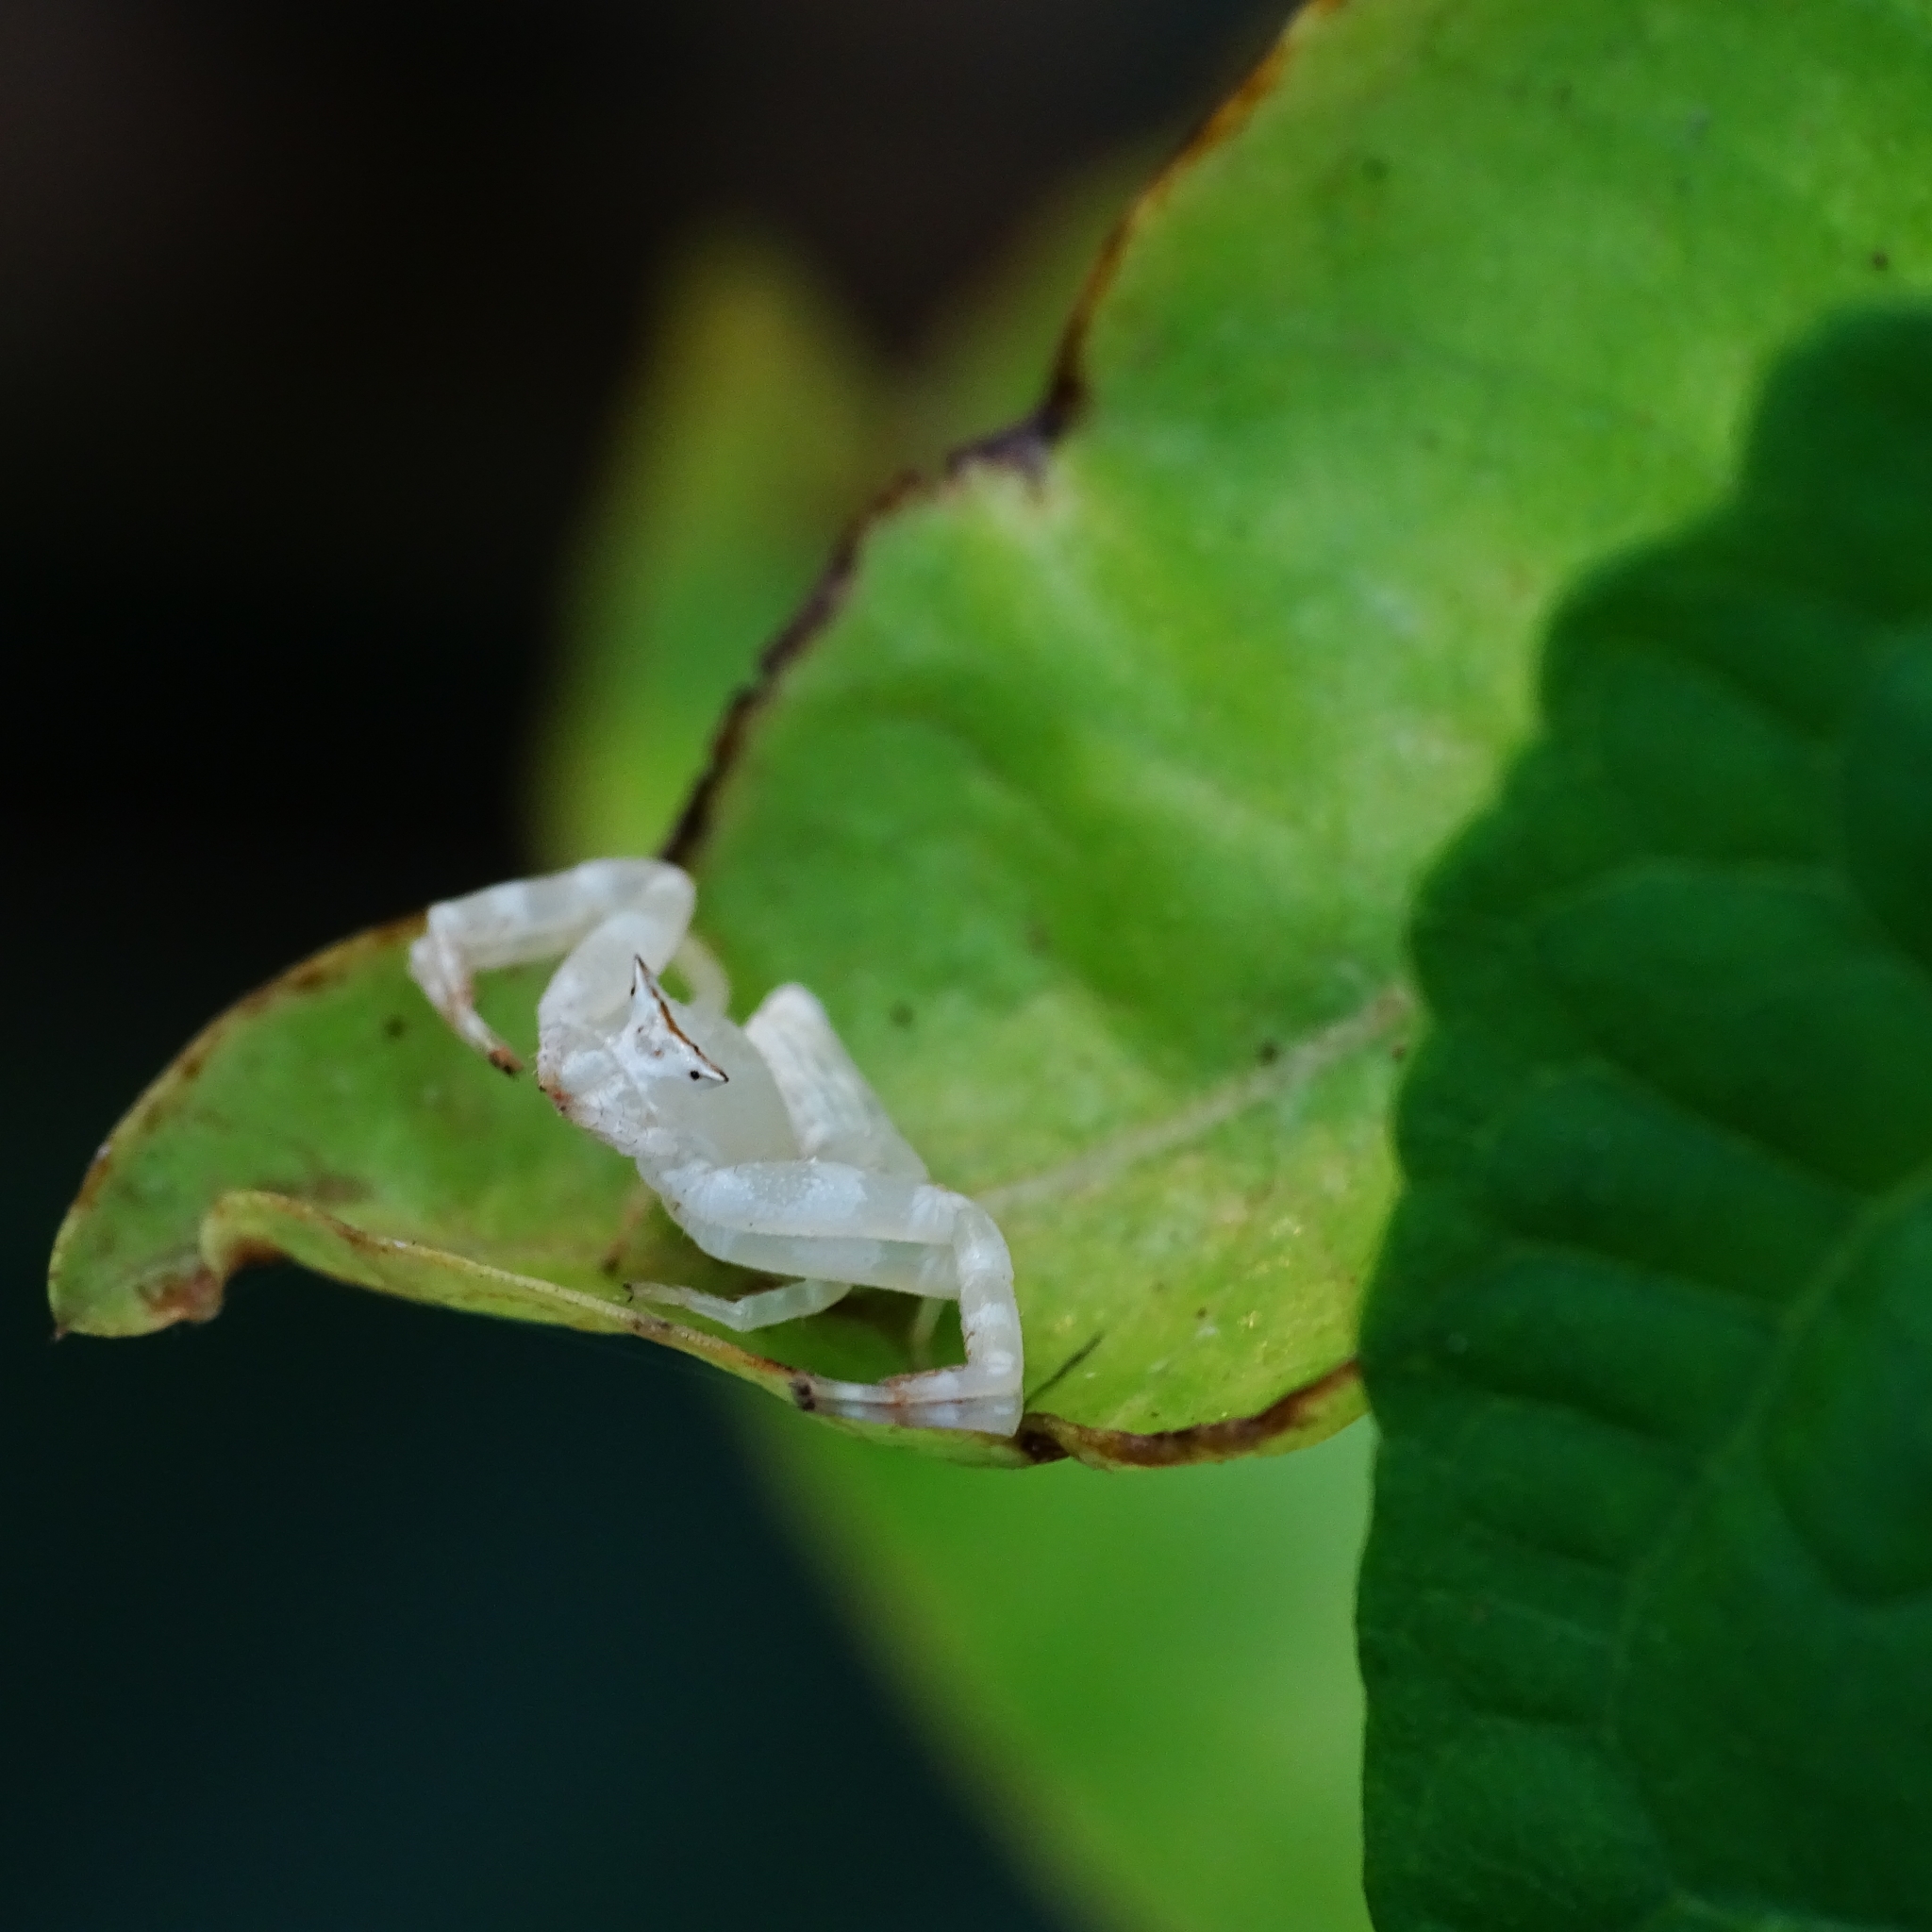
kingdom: Animalia
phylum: Arthropoda
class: Arachnida
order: Araneae
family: Thomisidae
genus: Thomisus
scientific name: Thomisus labefactus
